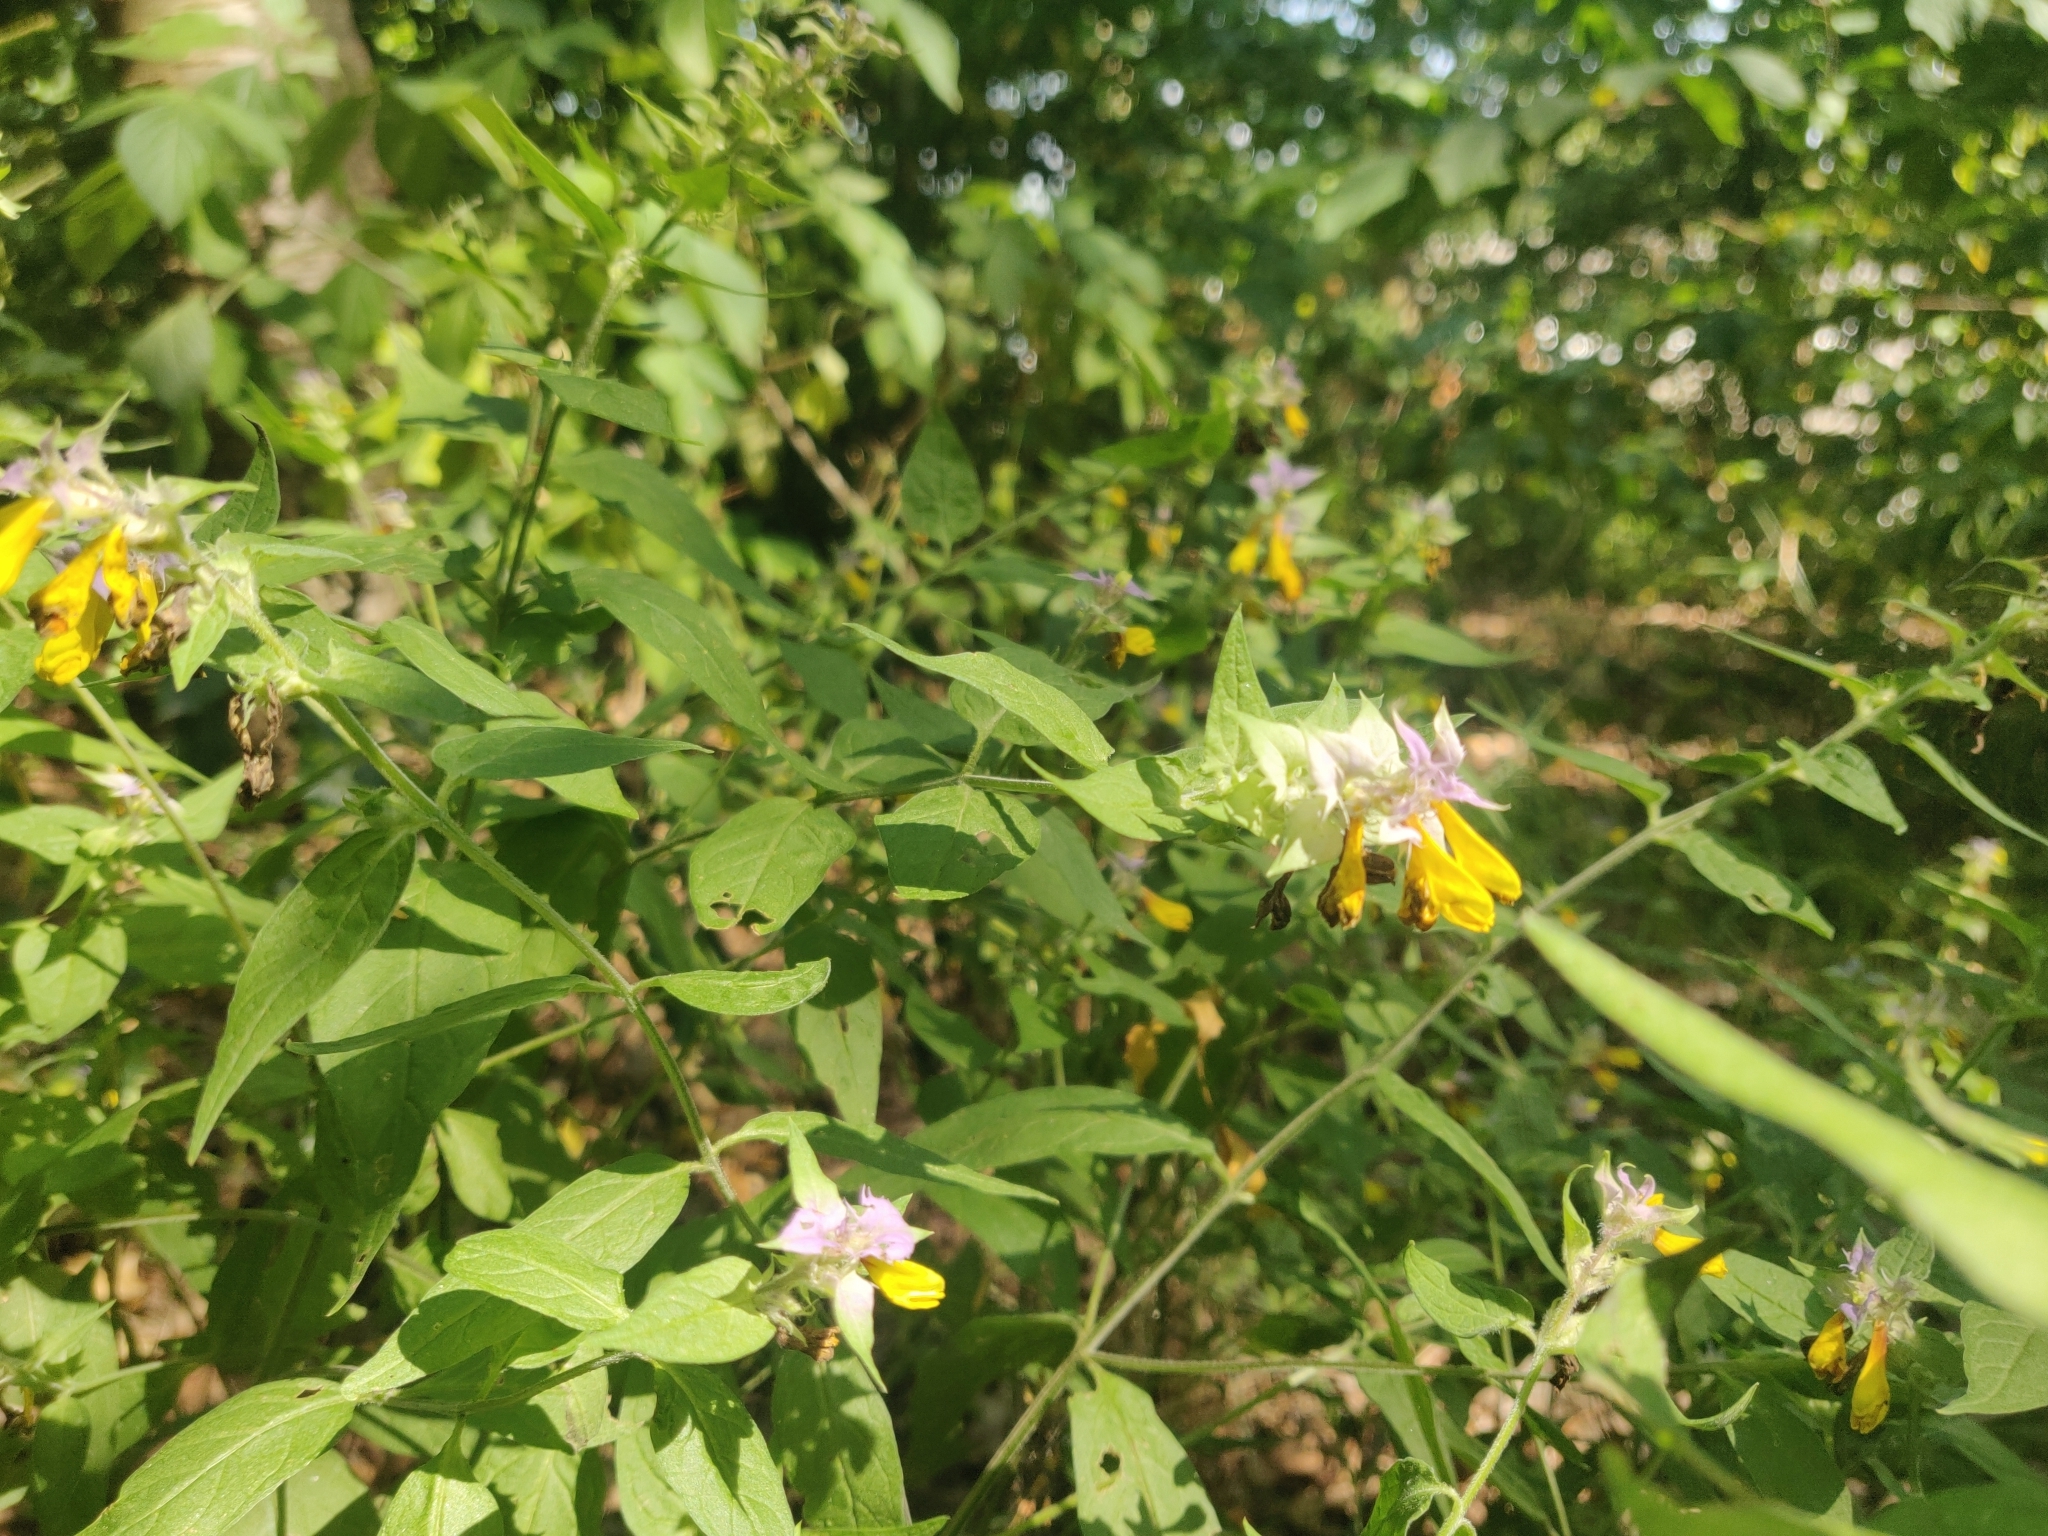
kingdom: Plantae
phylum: Tracheophyta
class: Magnoliopsida
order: Lamiales
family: Orobanchaceae
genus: Melampyrum
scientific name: Melampyrum nemorosum
